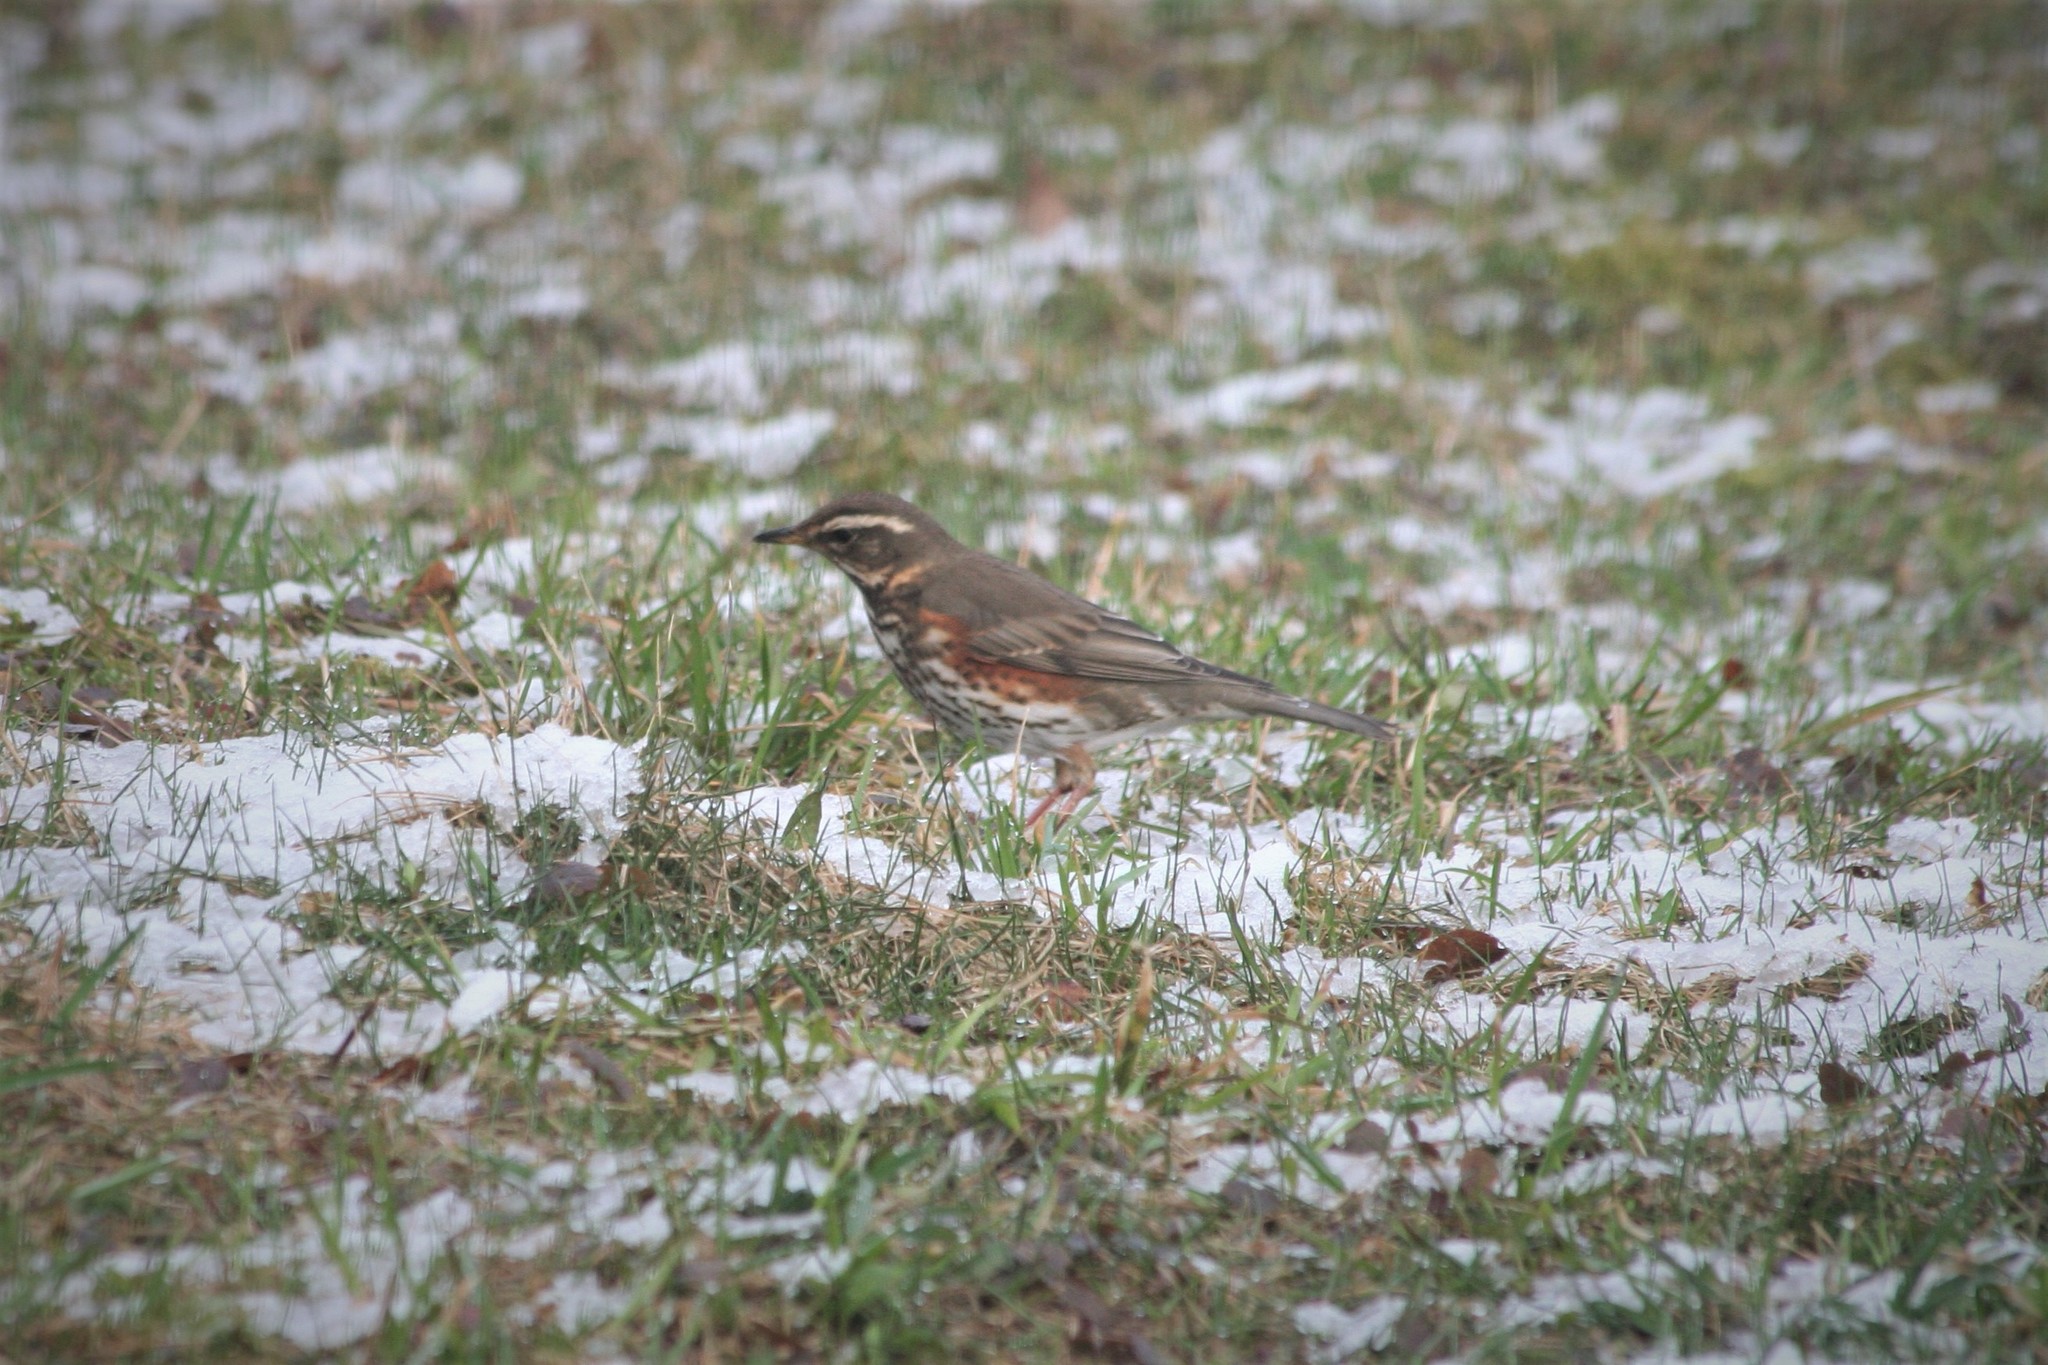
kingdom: Animalia
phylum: Chordata
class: Aves
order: Passeriformes
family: Turdidae
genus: Turdus
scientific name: Turdus iliacus
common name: Redwing
